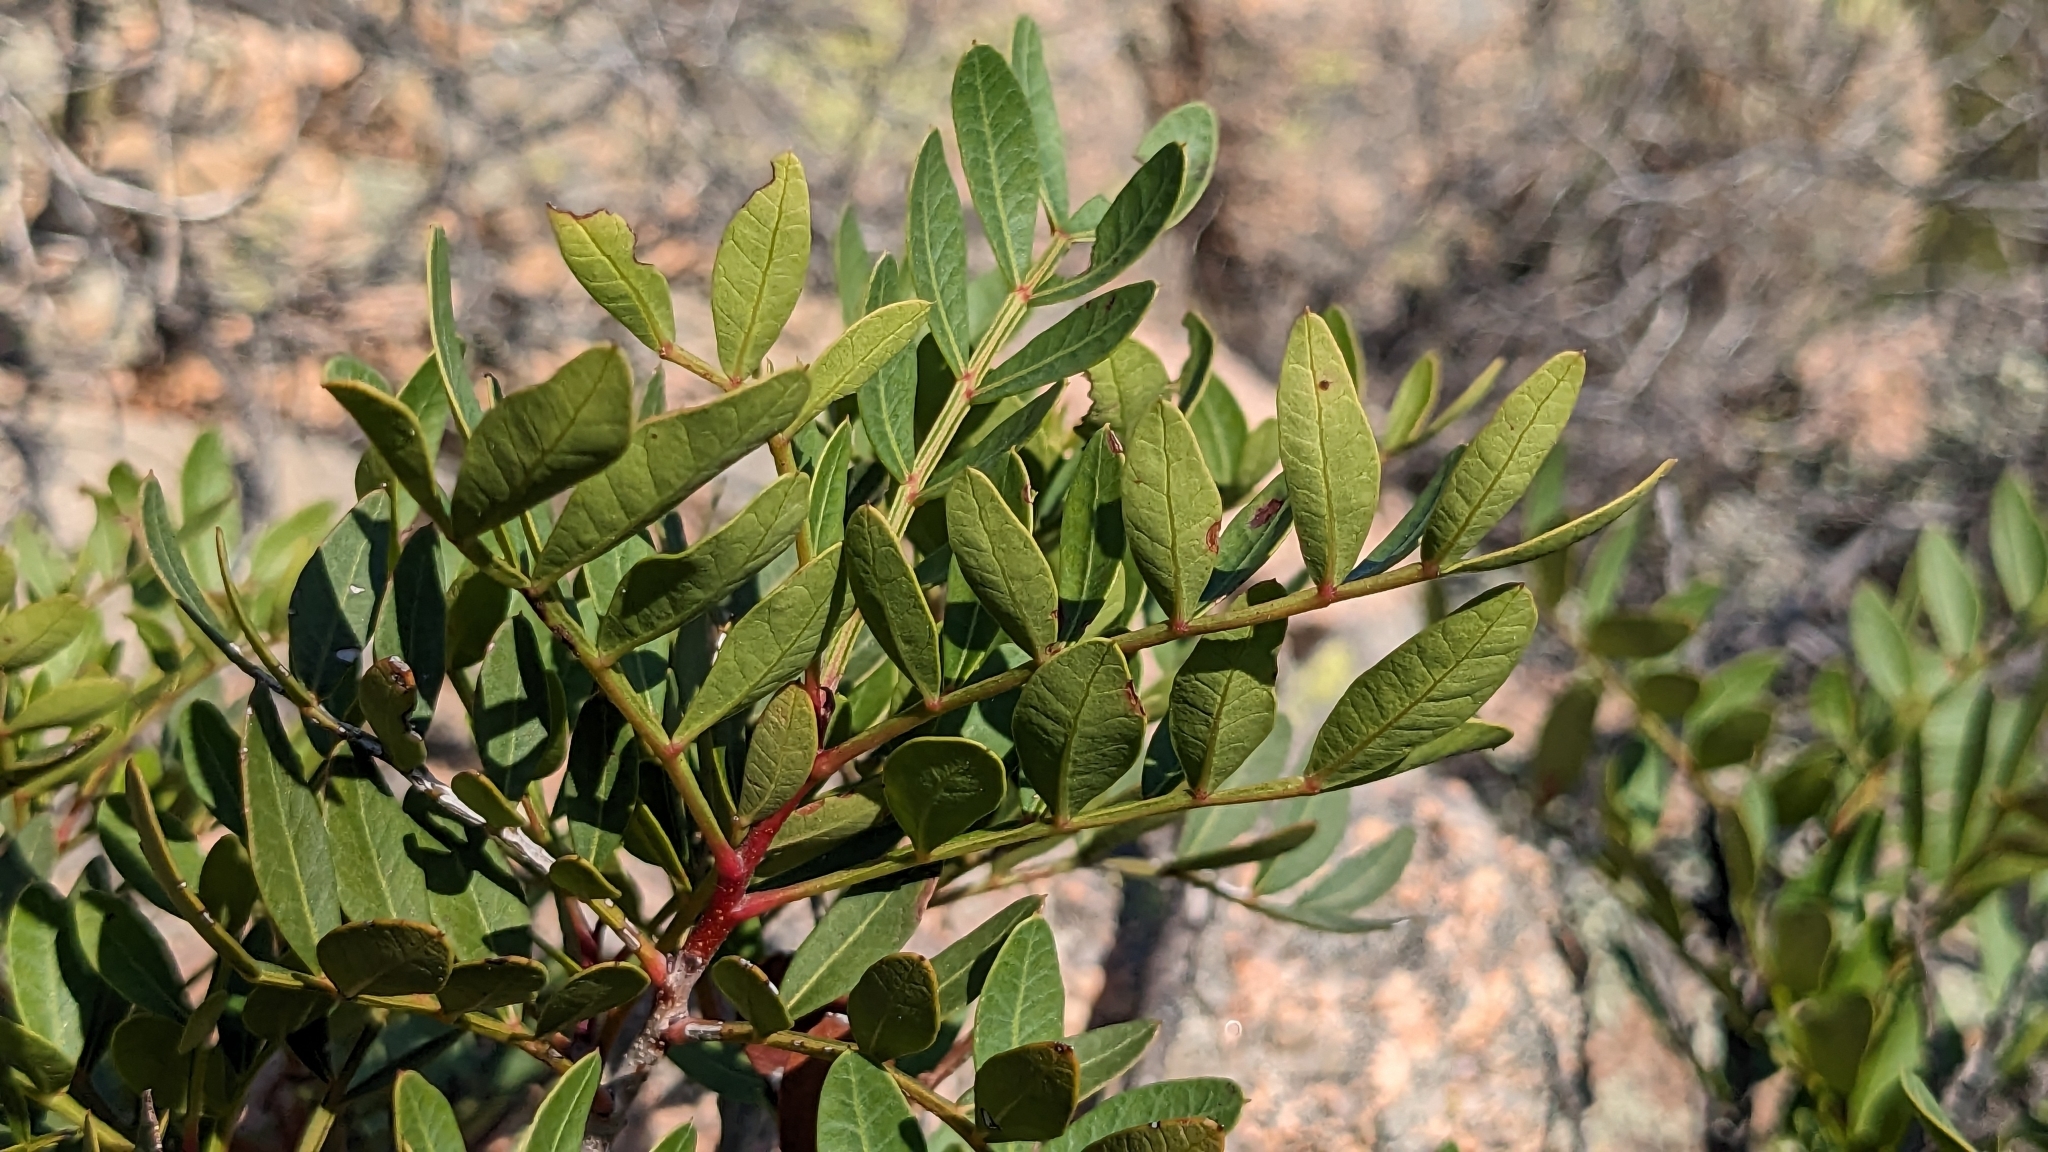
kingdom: Plantae
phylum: Tracheophyta
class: Magnoliopsida
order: Sapindales
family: Anacardiaceae
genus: Pistacia
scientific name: Pistacia lentiscus
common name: Lentisk
